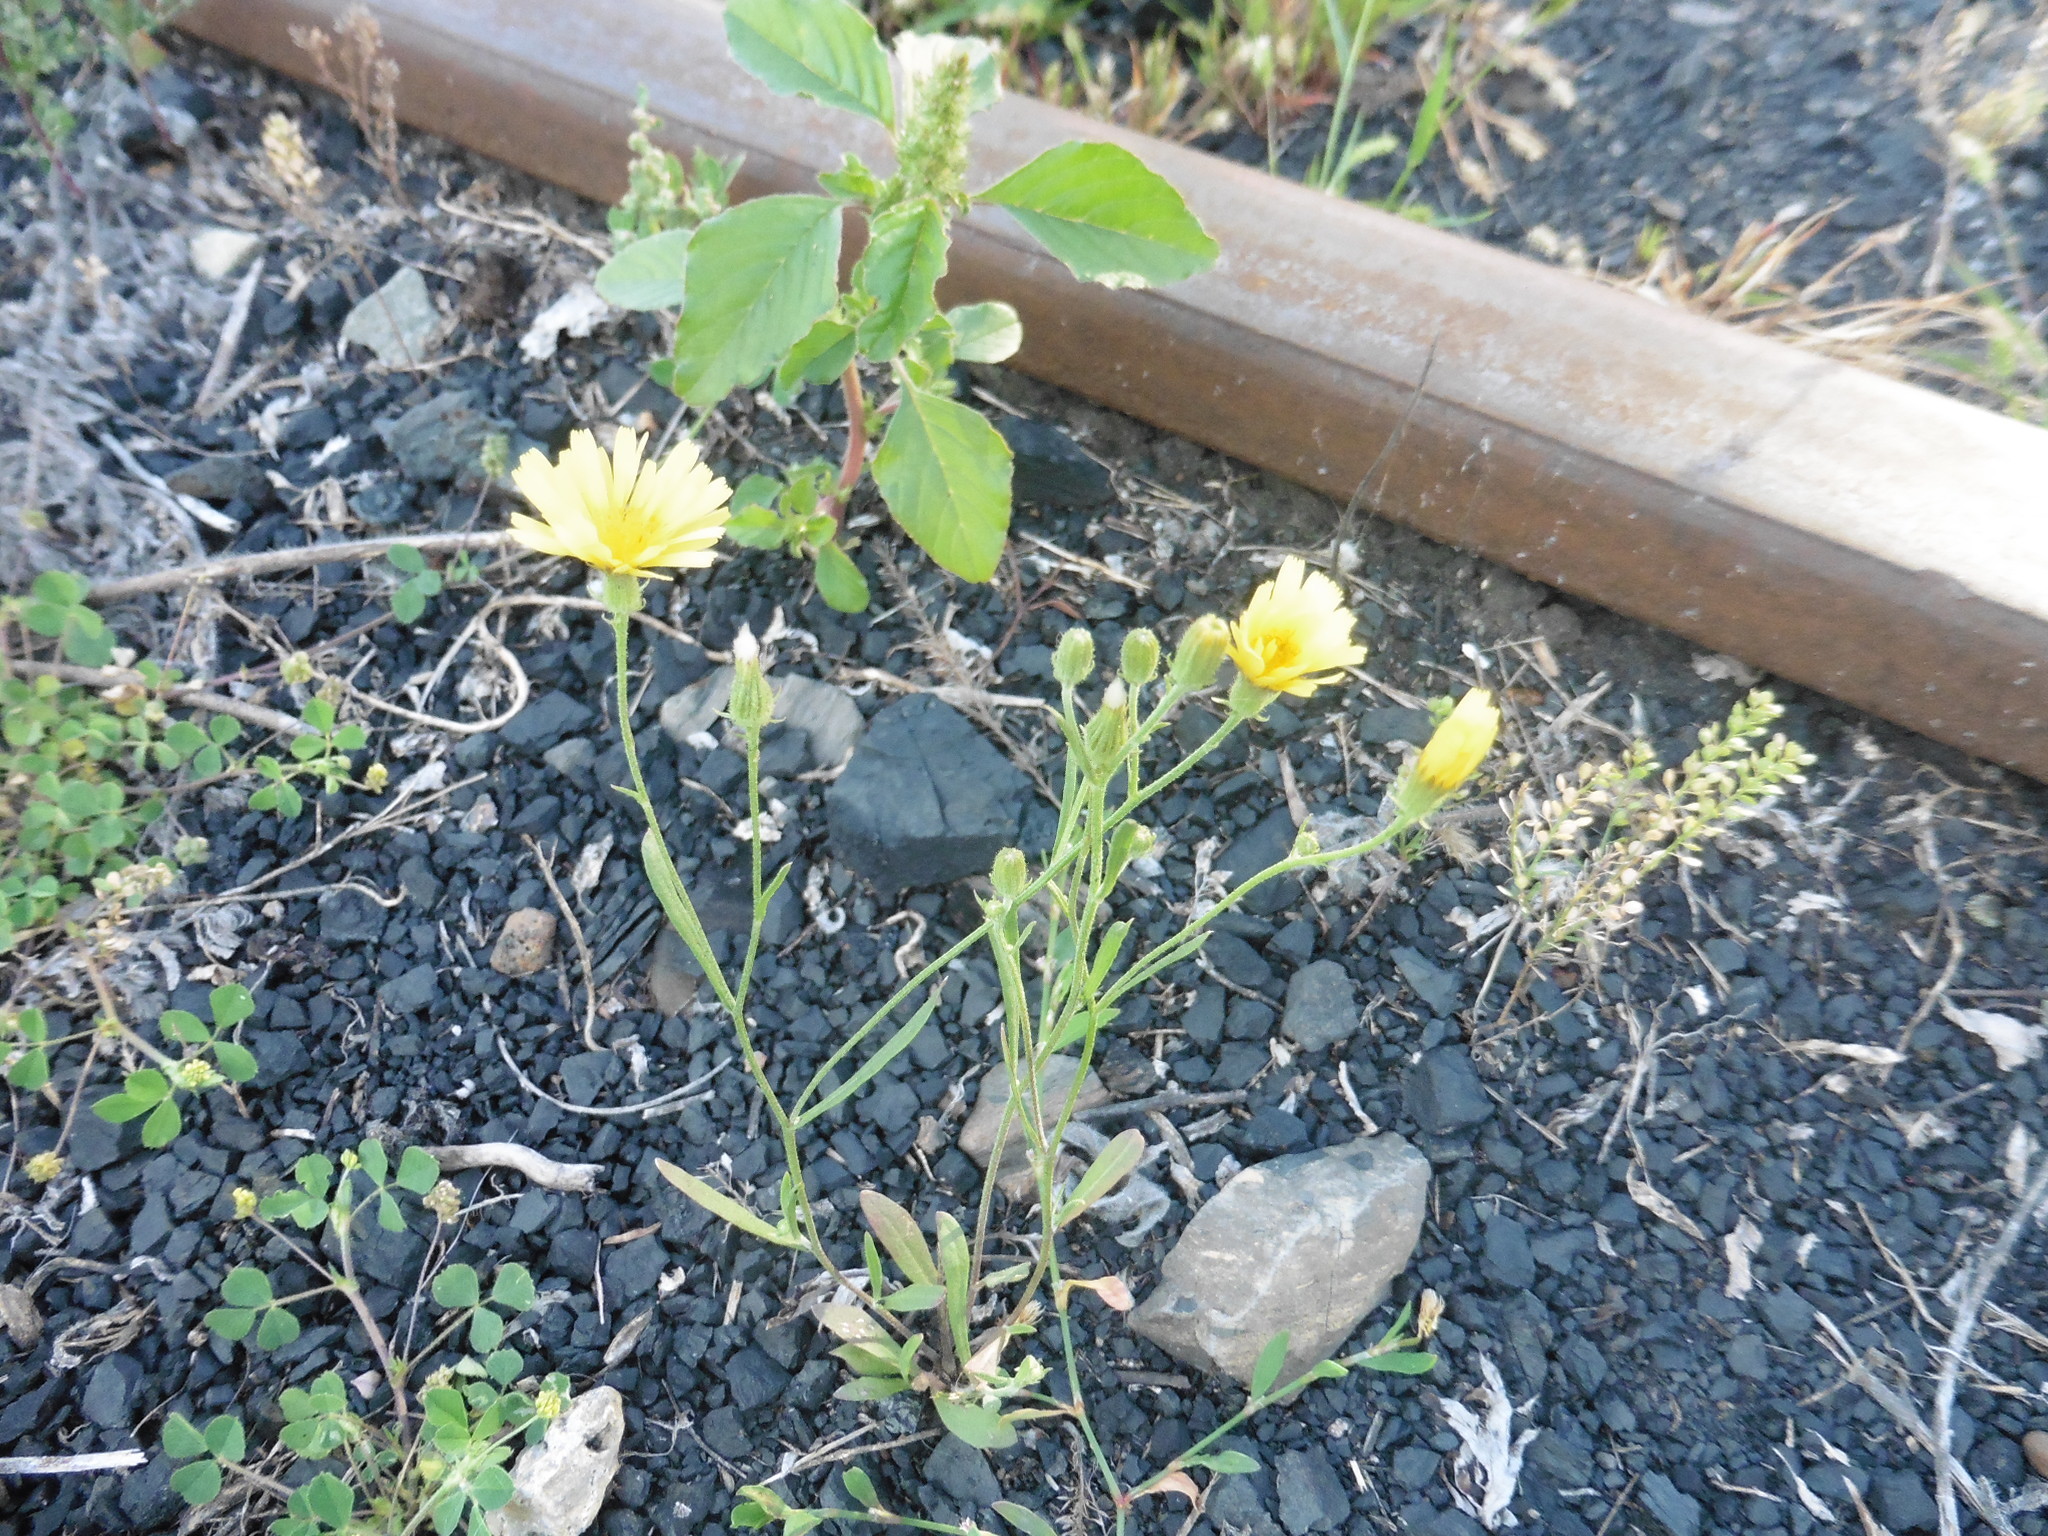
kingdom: Plantae
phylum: Tracheophyta
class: Magnoliopsida
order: Asterales
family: Asteraceae
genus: Crepis
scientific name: Crepis tectorum
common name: Narrow-leaved hawk's-beard
